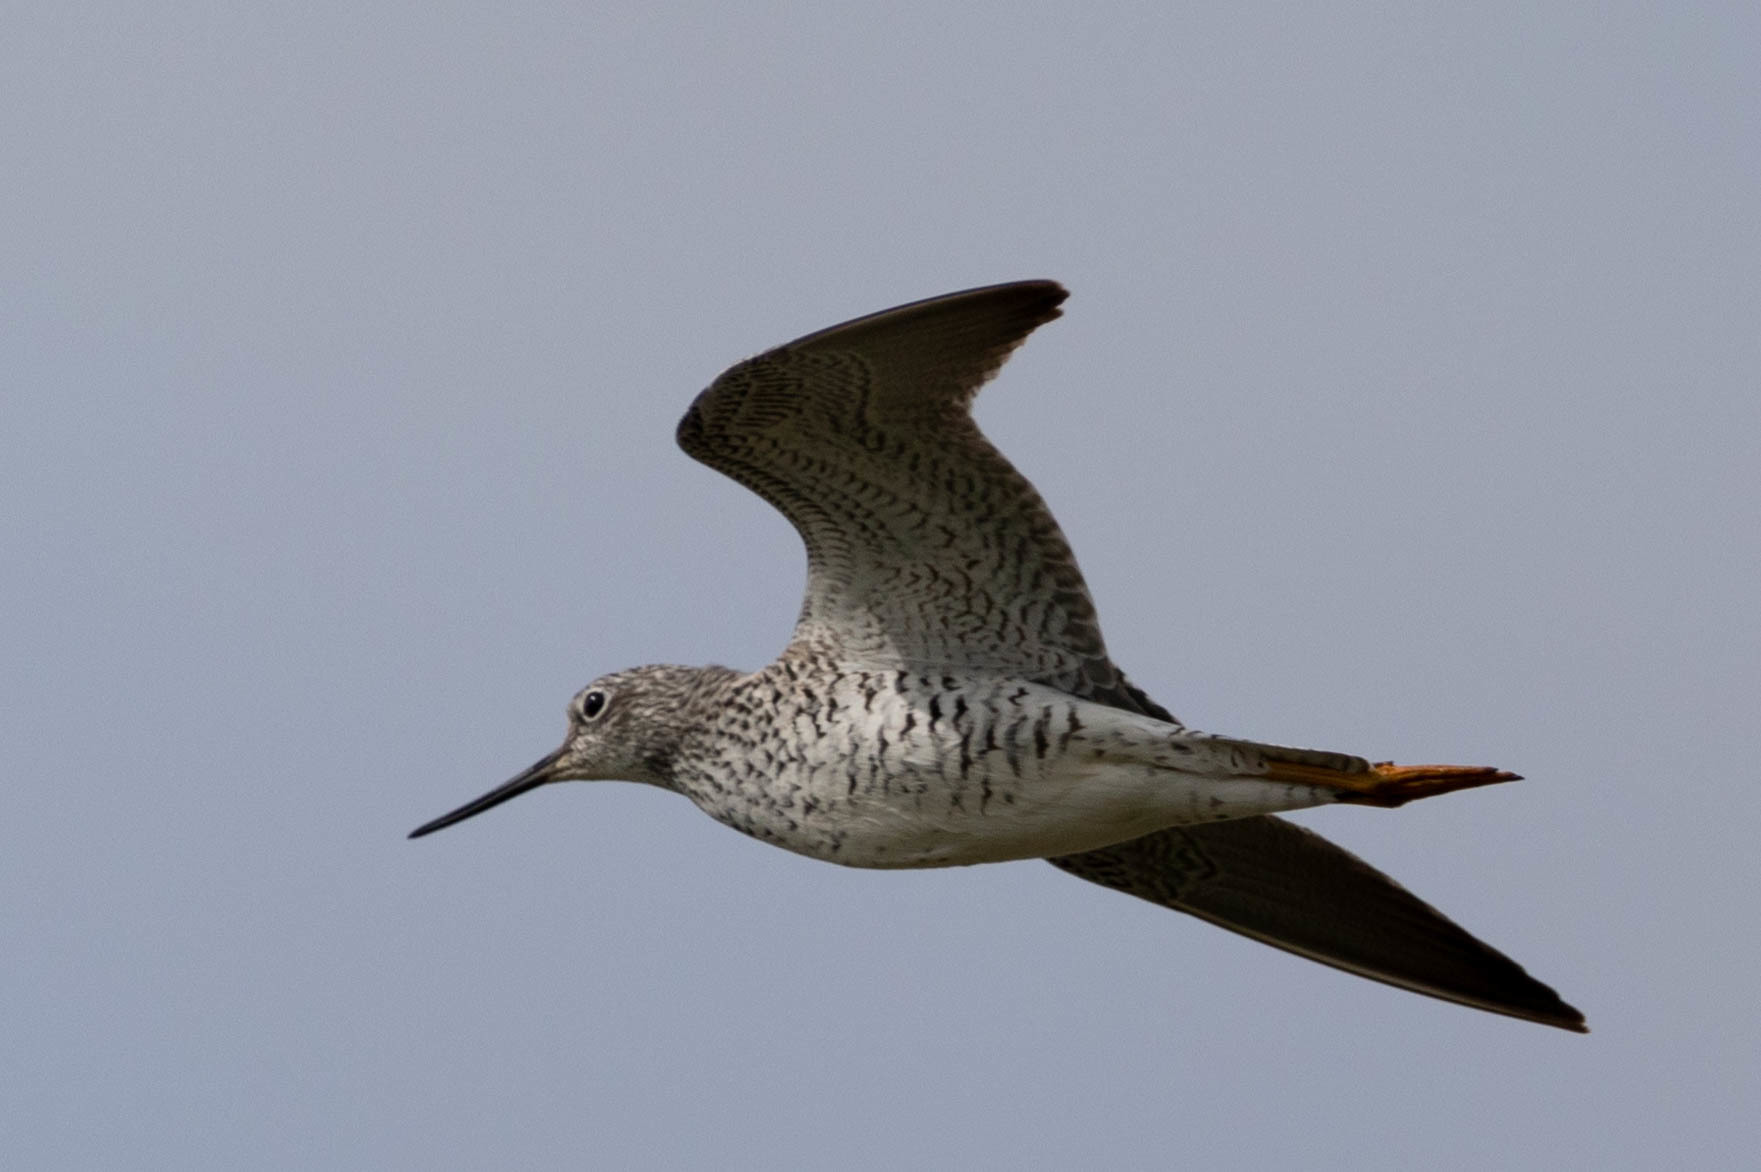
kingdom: Animalia
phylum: Chordata
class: Aves
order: Charadriiformes
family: Scolopacidae
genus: Tringa
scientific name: Tringa melanoleuca
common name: Greater yellowlegs
